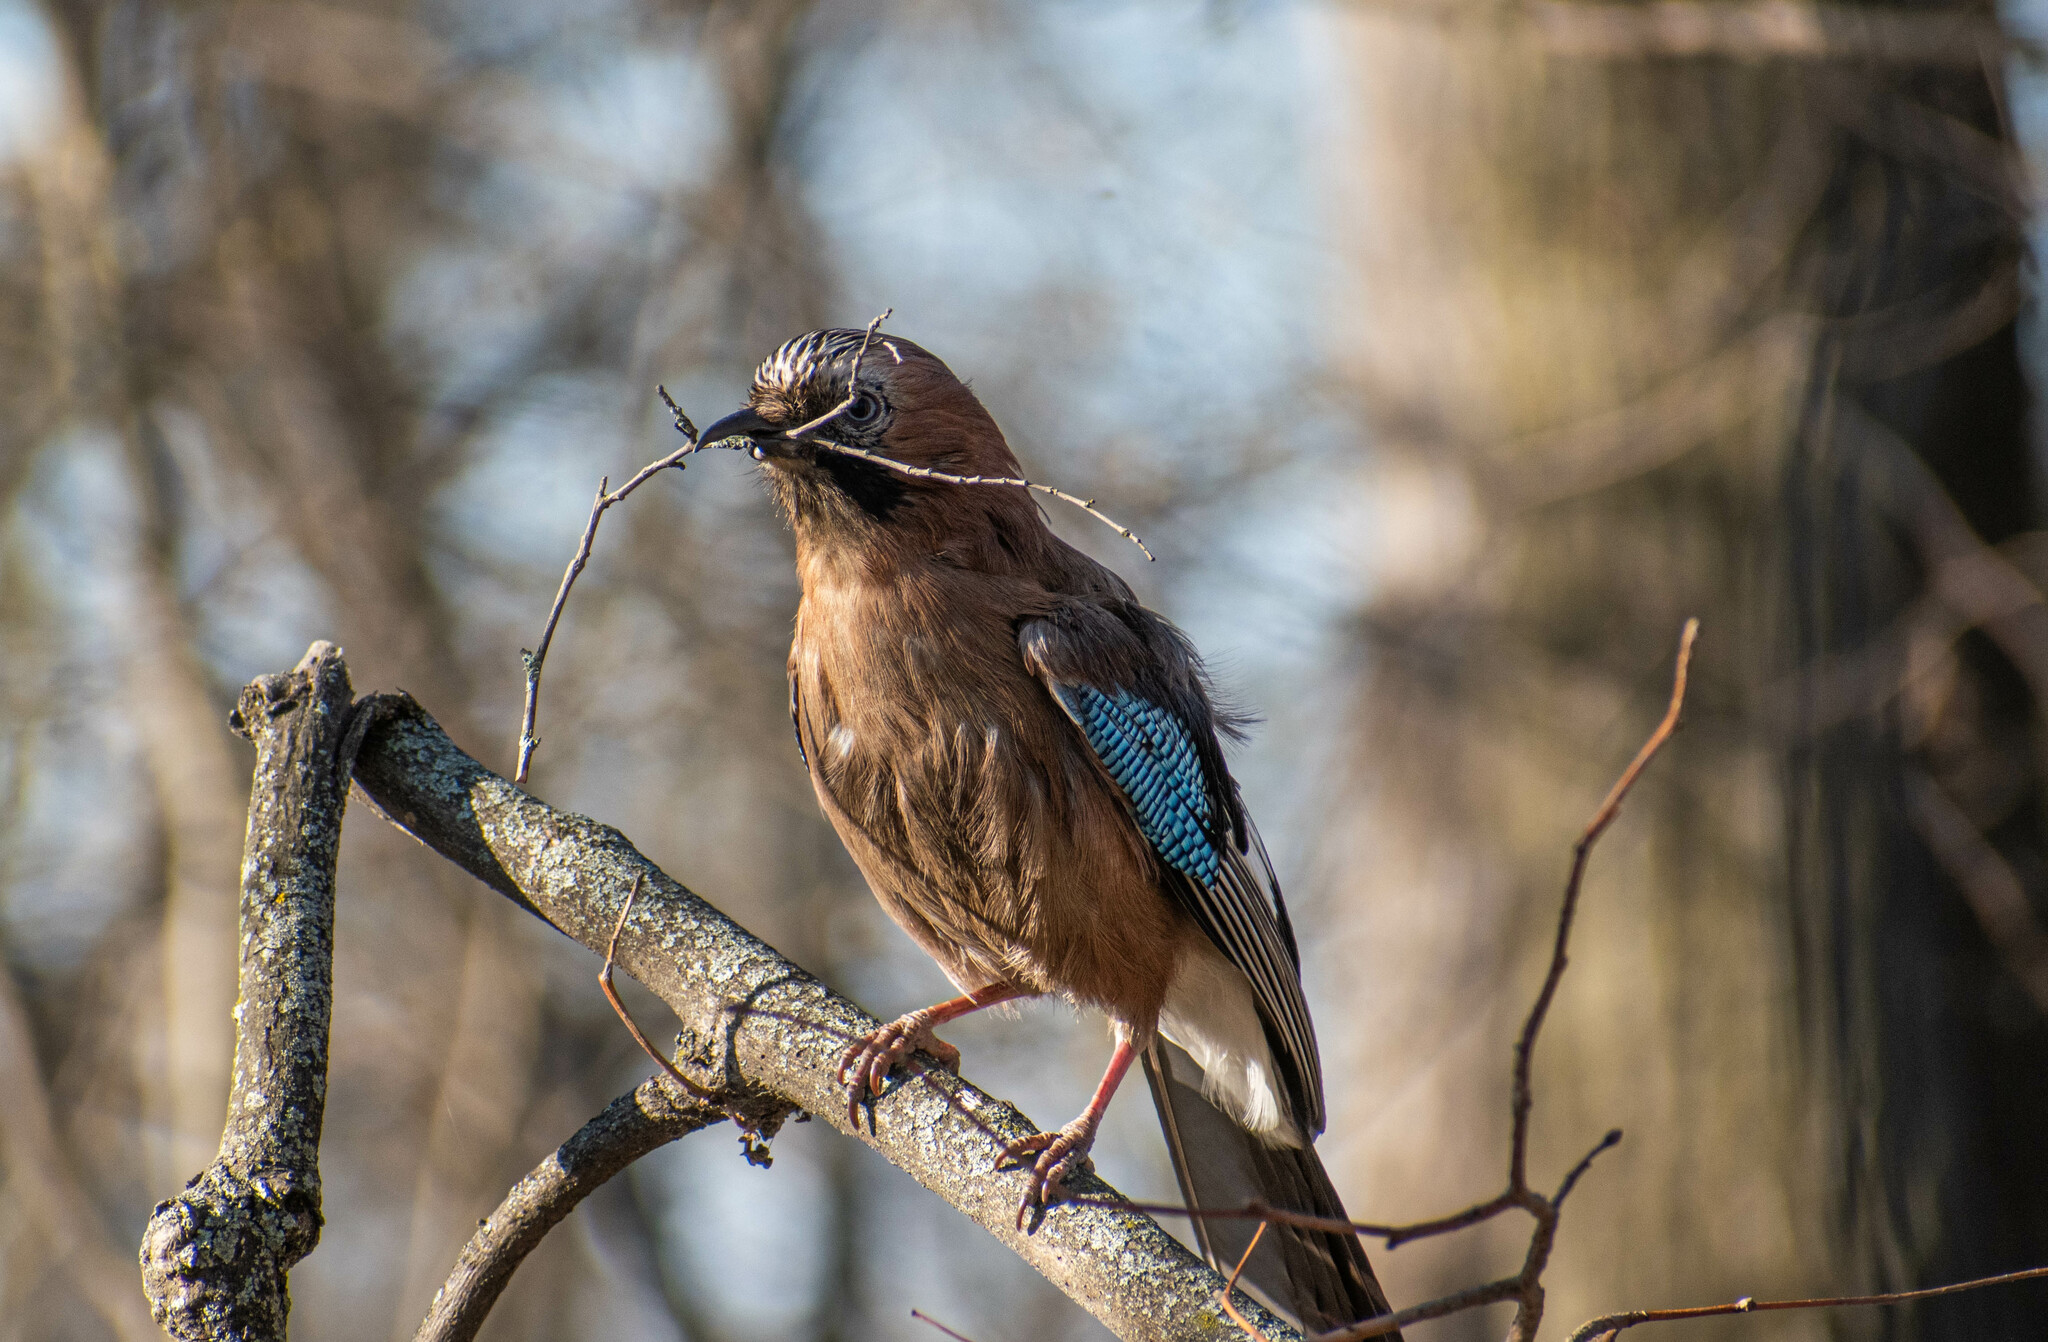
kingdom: Animalia
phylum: Chordata
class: Aves
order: Passeriformes
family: Corvidae
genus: Garrulus
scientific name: Garrulus glandarius
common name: Eurasian jay
